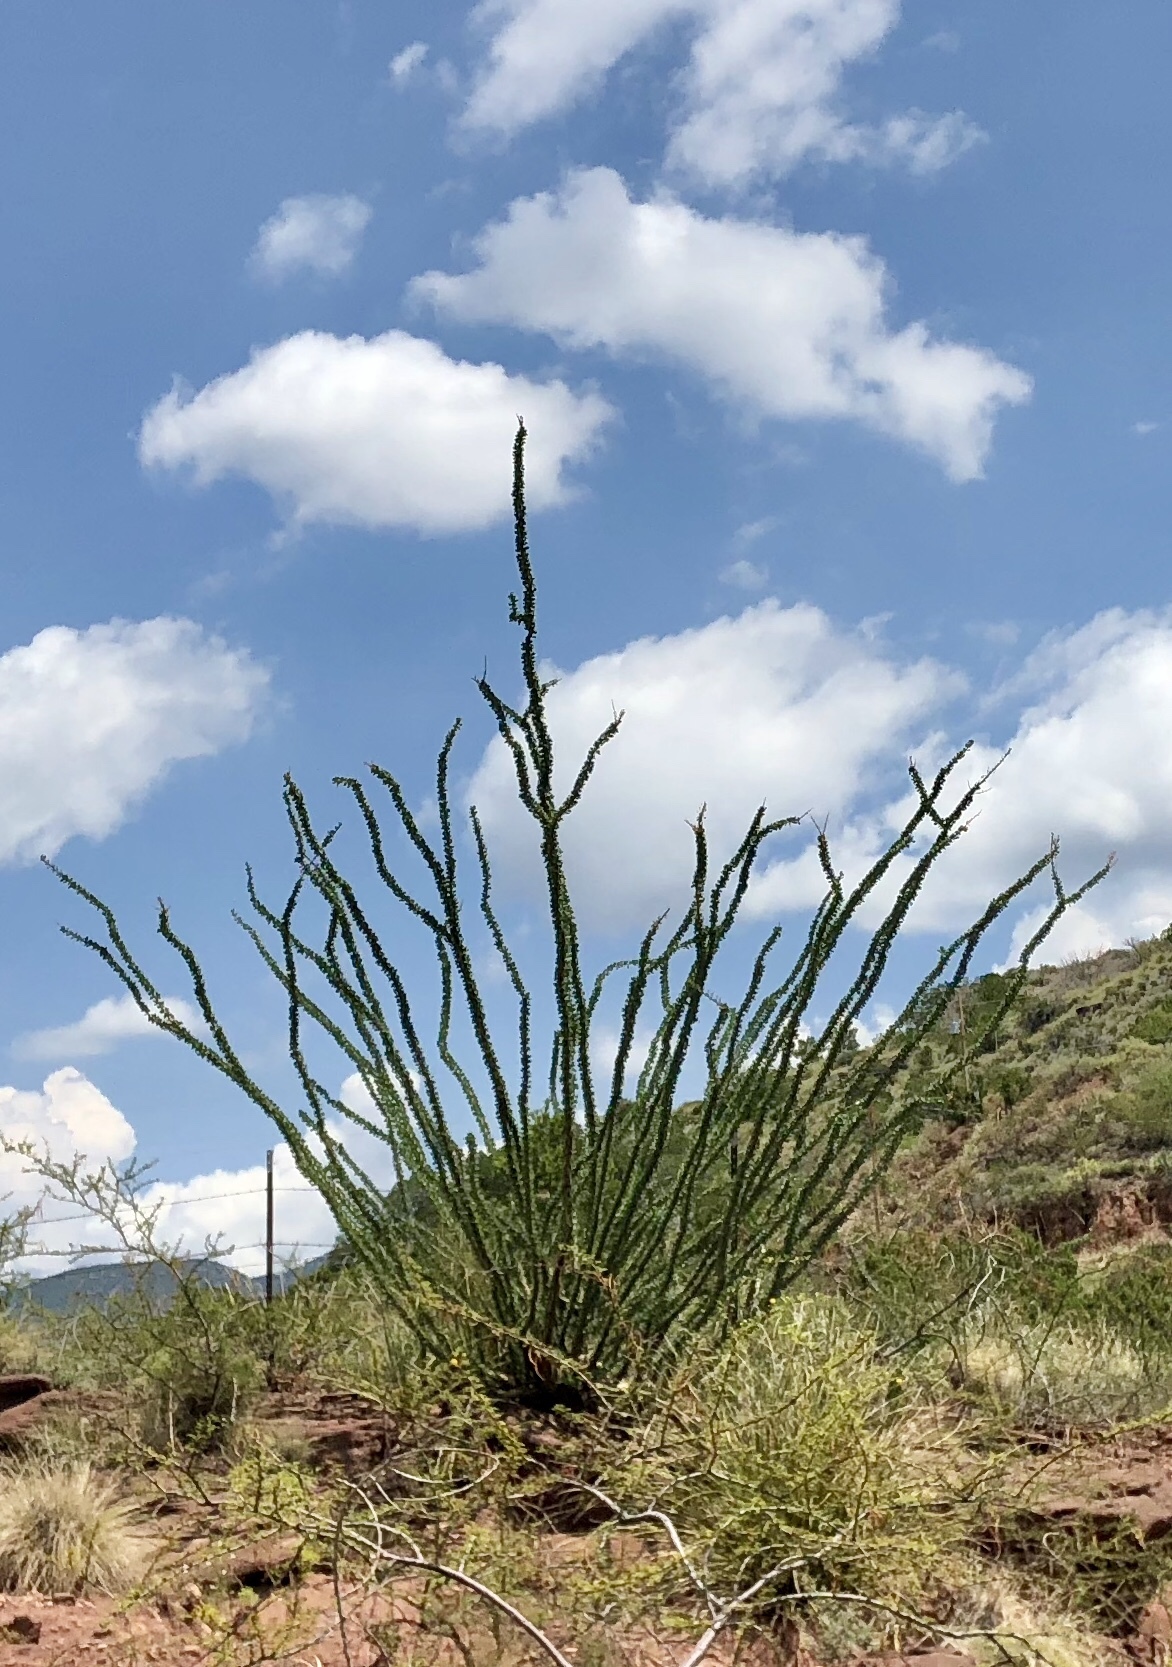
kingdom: Plantae
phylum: Tracheophyta
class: Magnoliopsida
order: Ericales
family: Fouquieriaceae
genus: Fouquieria
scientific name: Fouquieria splendens
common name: Vine-cactus
